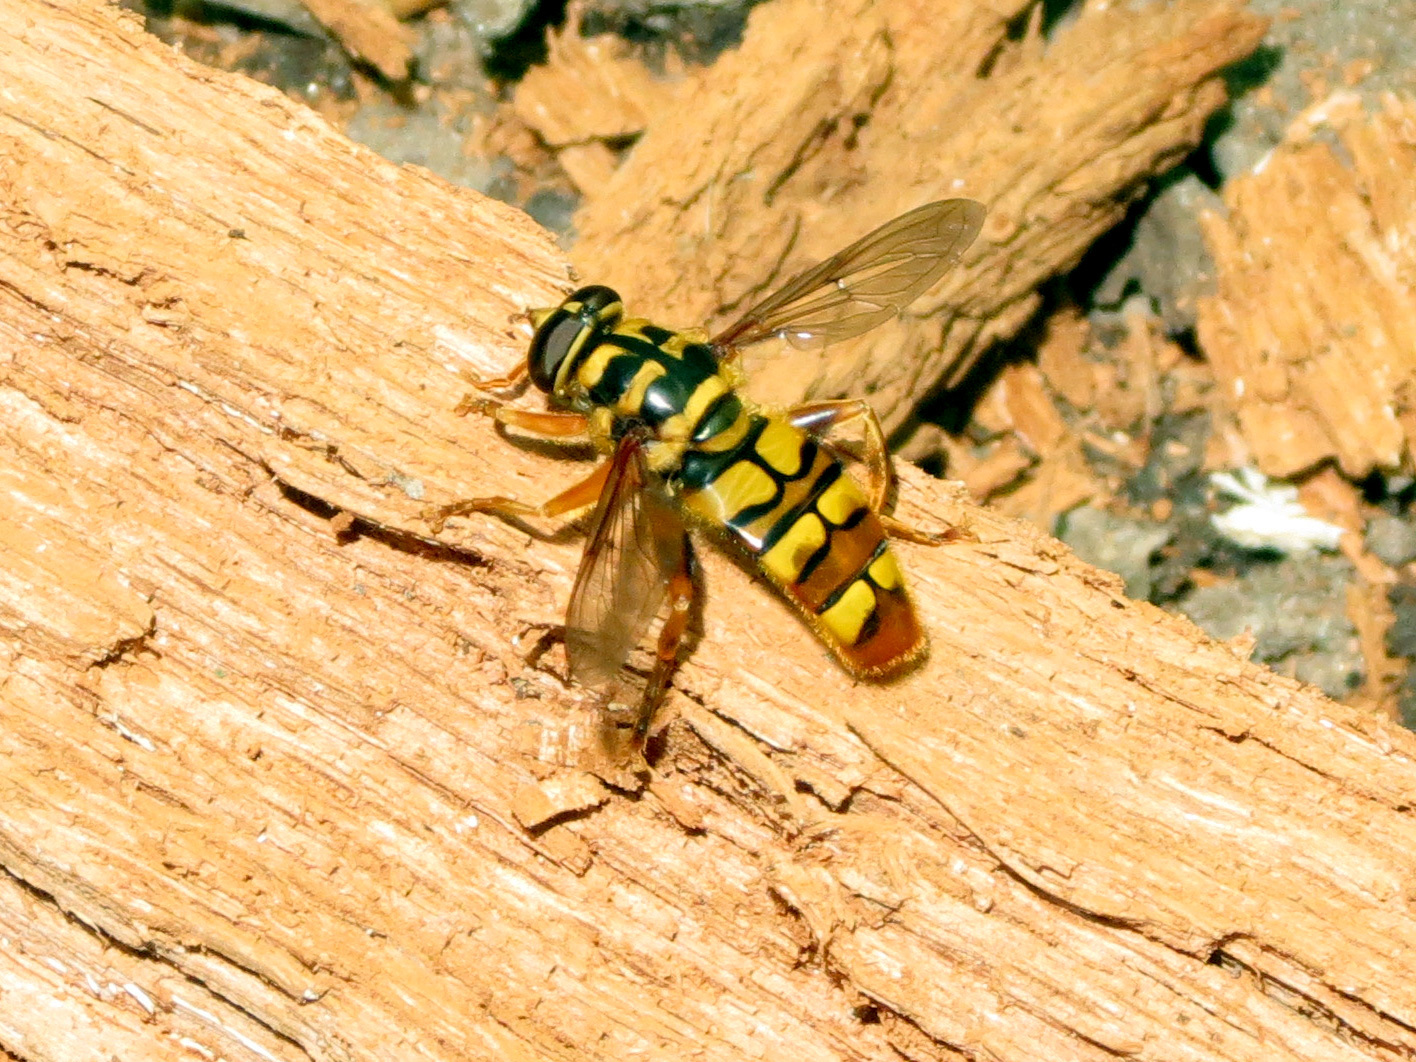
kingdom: Animalia
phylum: Arthropoda
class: Insecta
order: Diptera
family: Syrphidae
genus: Milesia
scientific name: Milesia virginiensis
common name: Virginia giant
